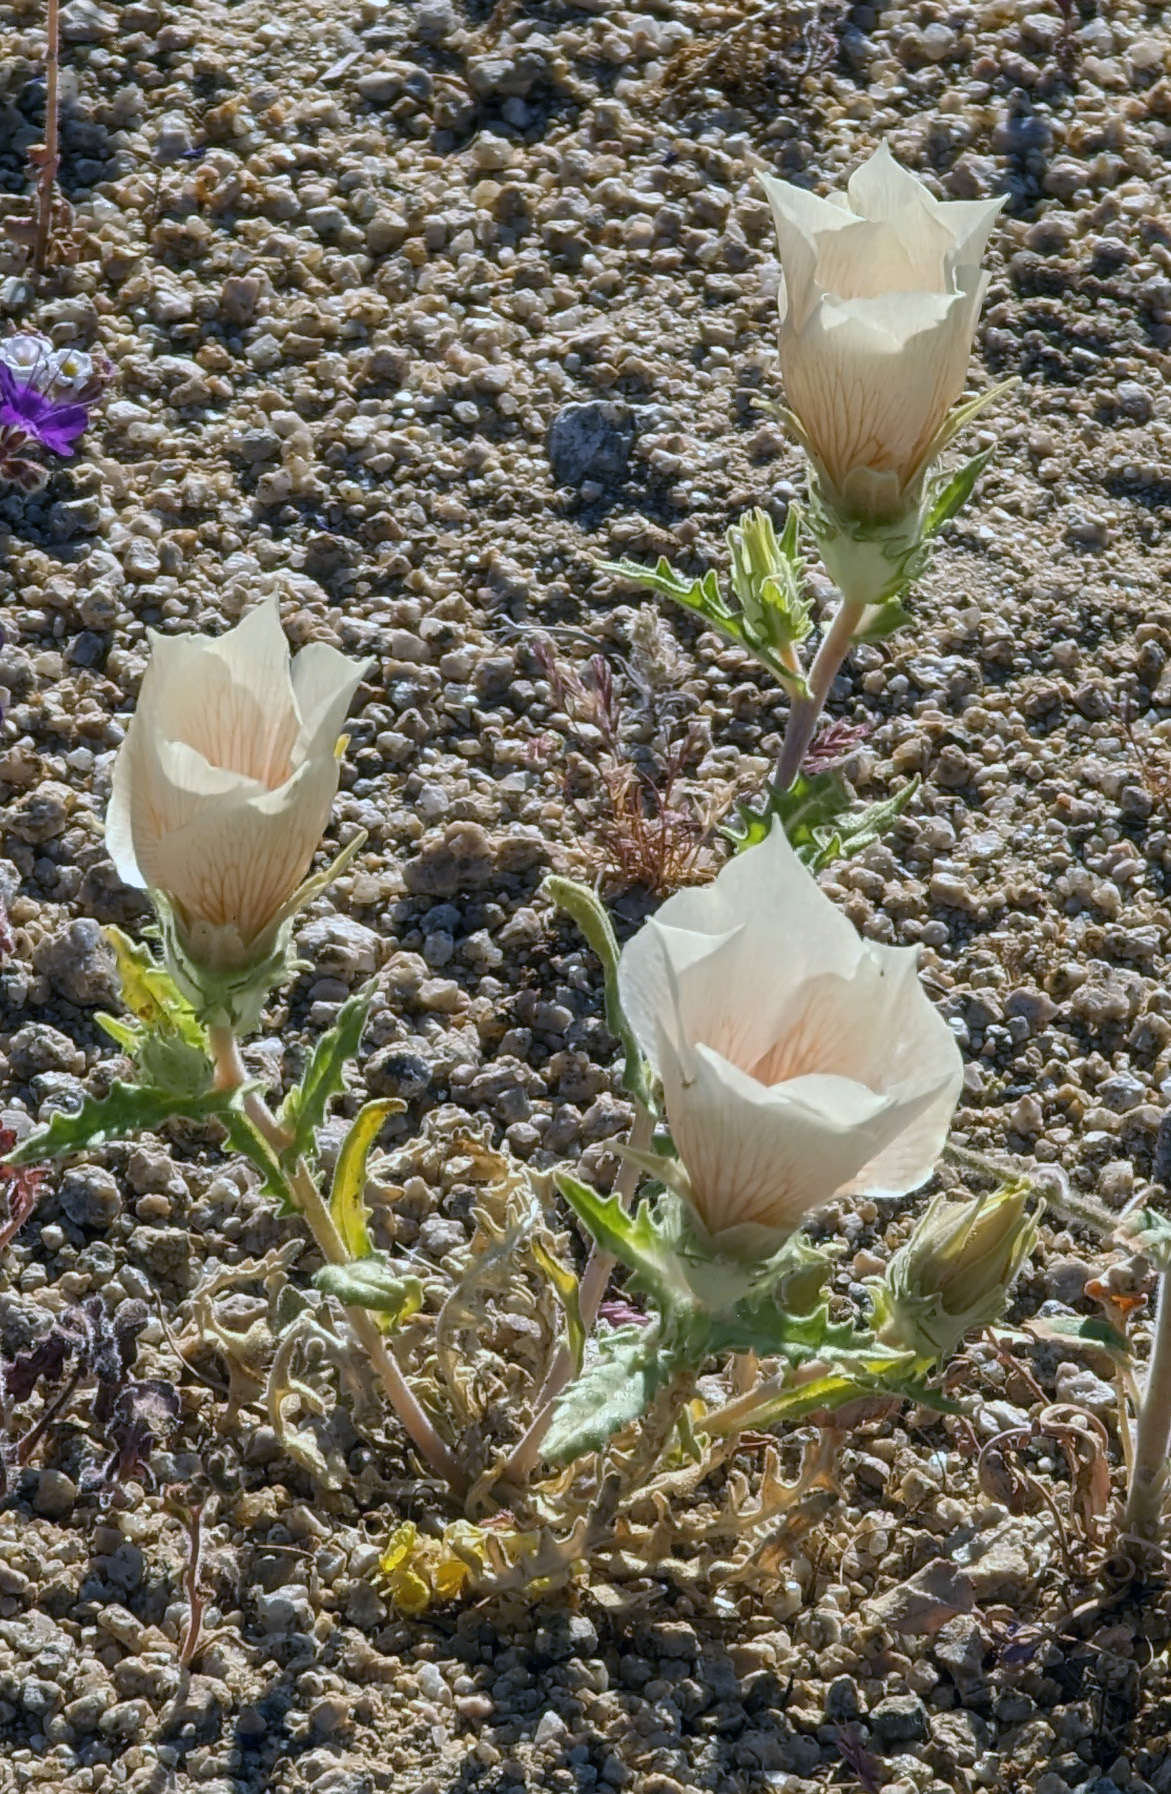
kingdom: Plantae
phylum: Tracheophyta
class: Magnoliopsida
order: Cornales
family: Loasaceae
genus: Mentzelia
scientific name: Mentzelia involucrata
